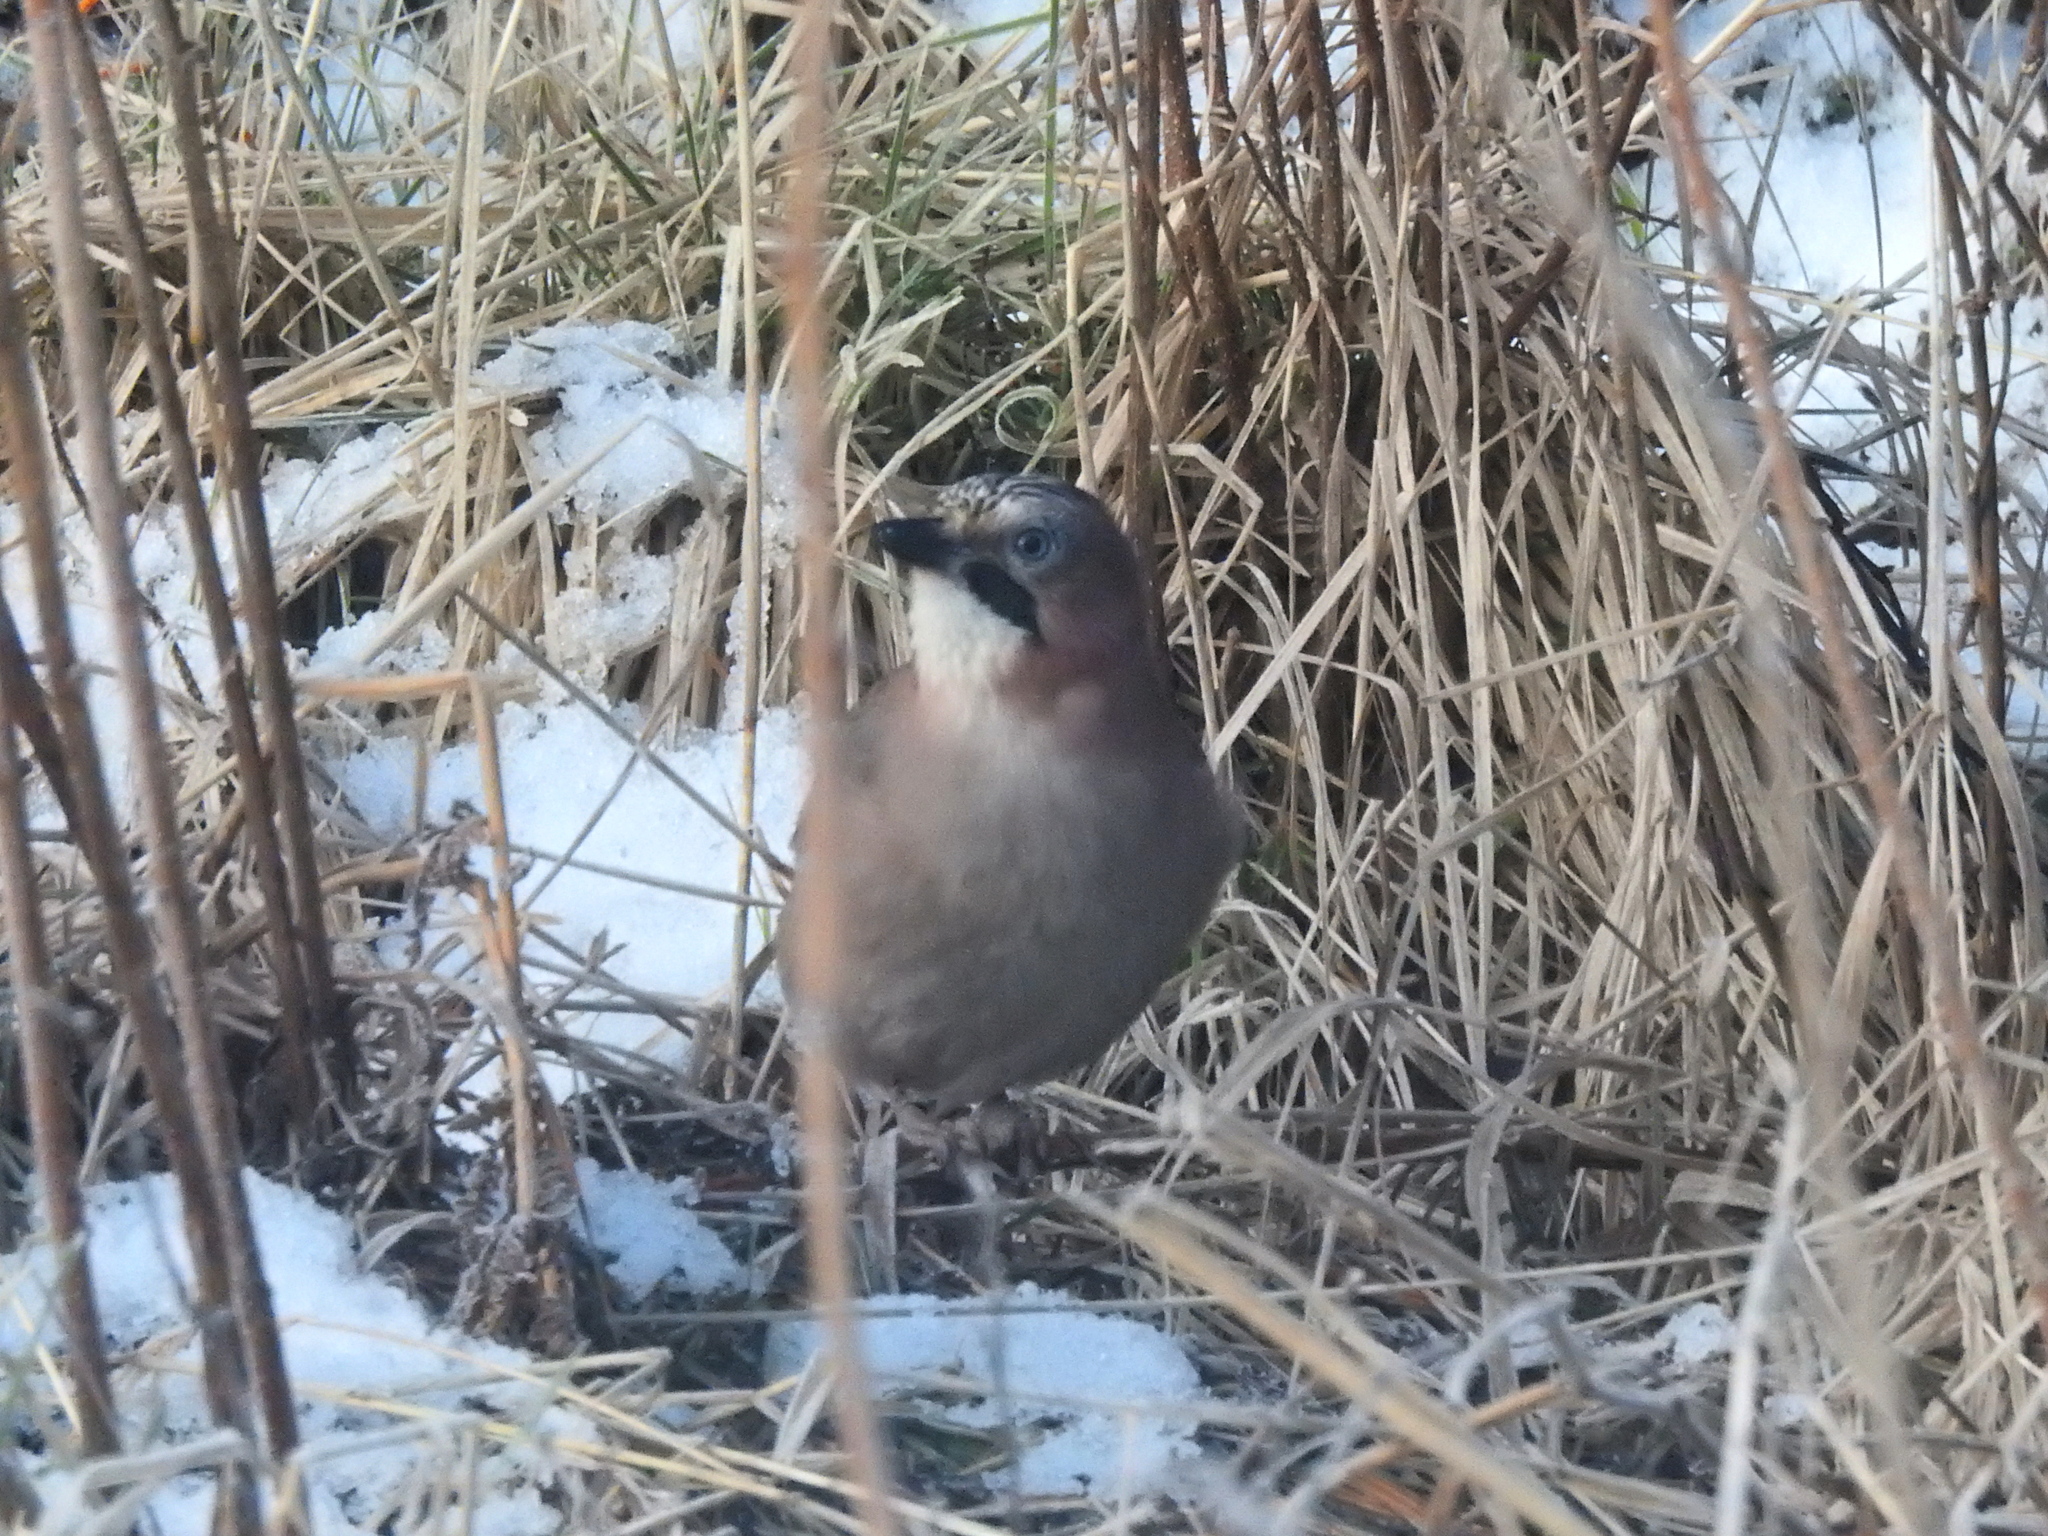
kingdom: Animalia
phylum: Chordata
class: Aves
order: Passeriformes
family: Corvidae
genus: Garrulus
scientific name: Garrulus glandarius
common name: Eurasian jay
